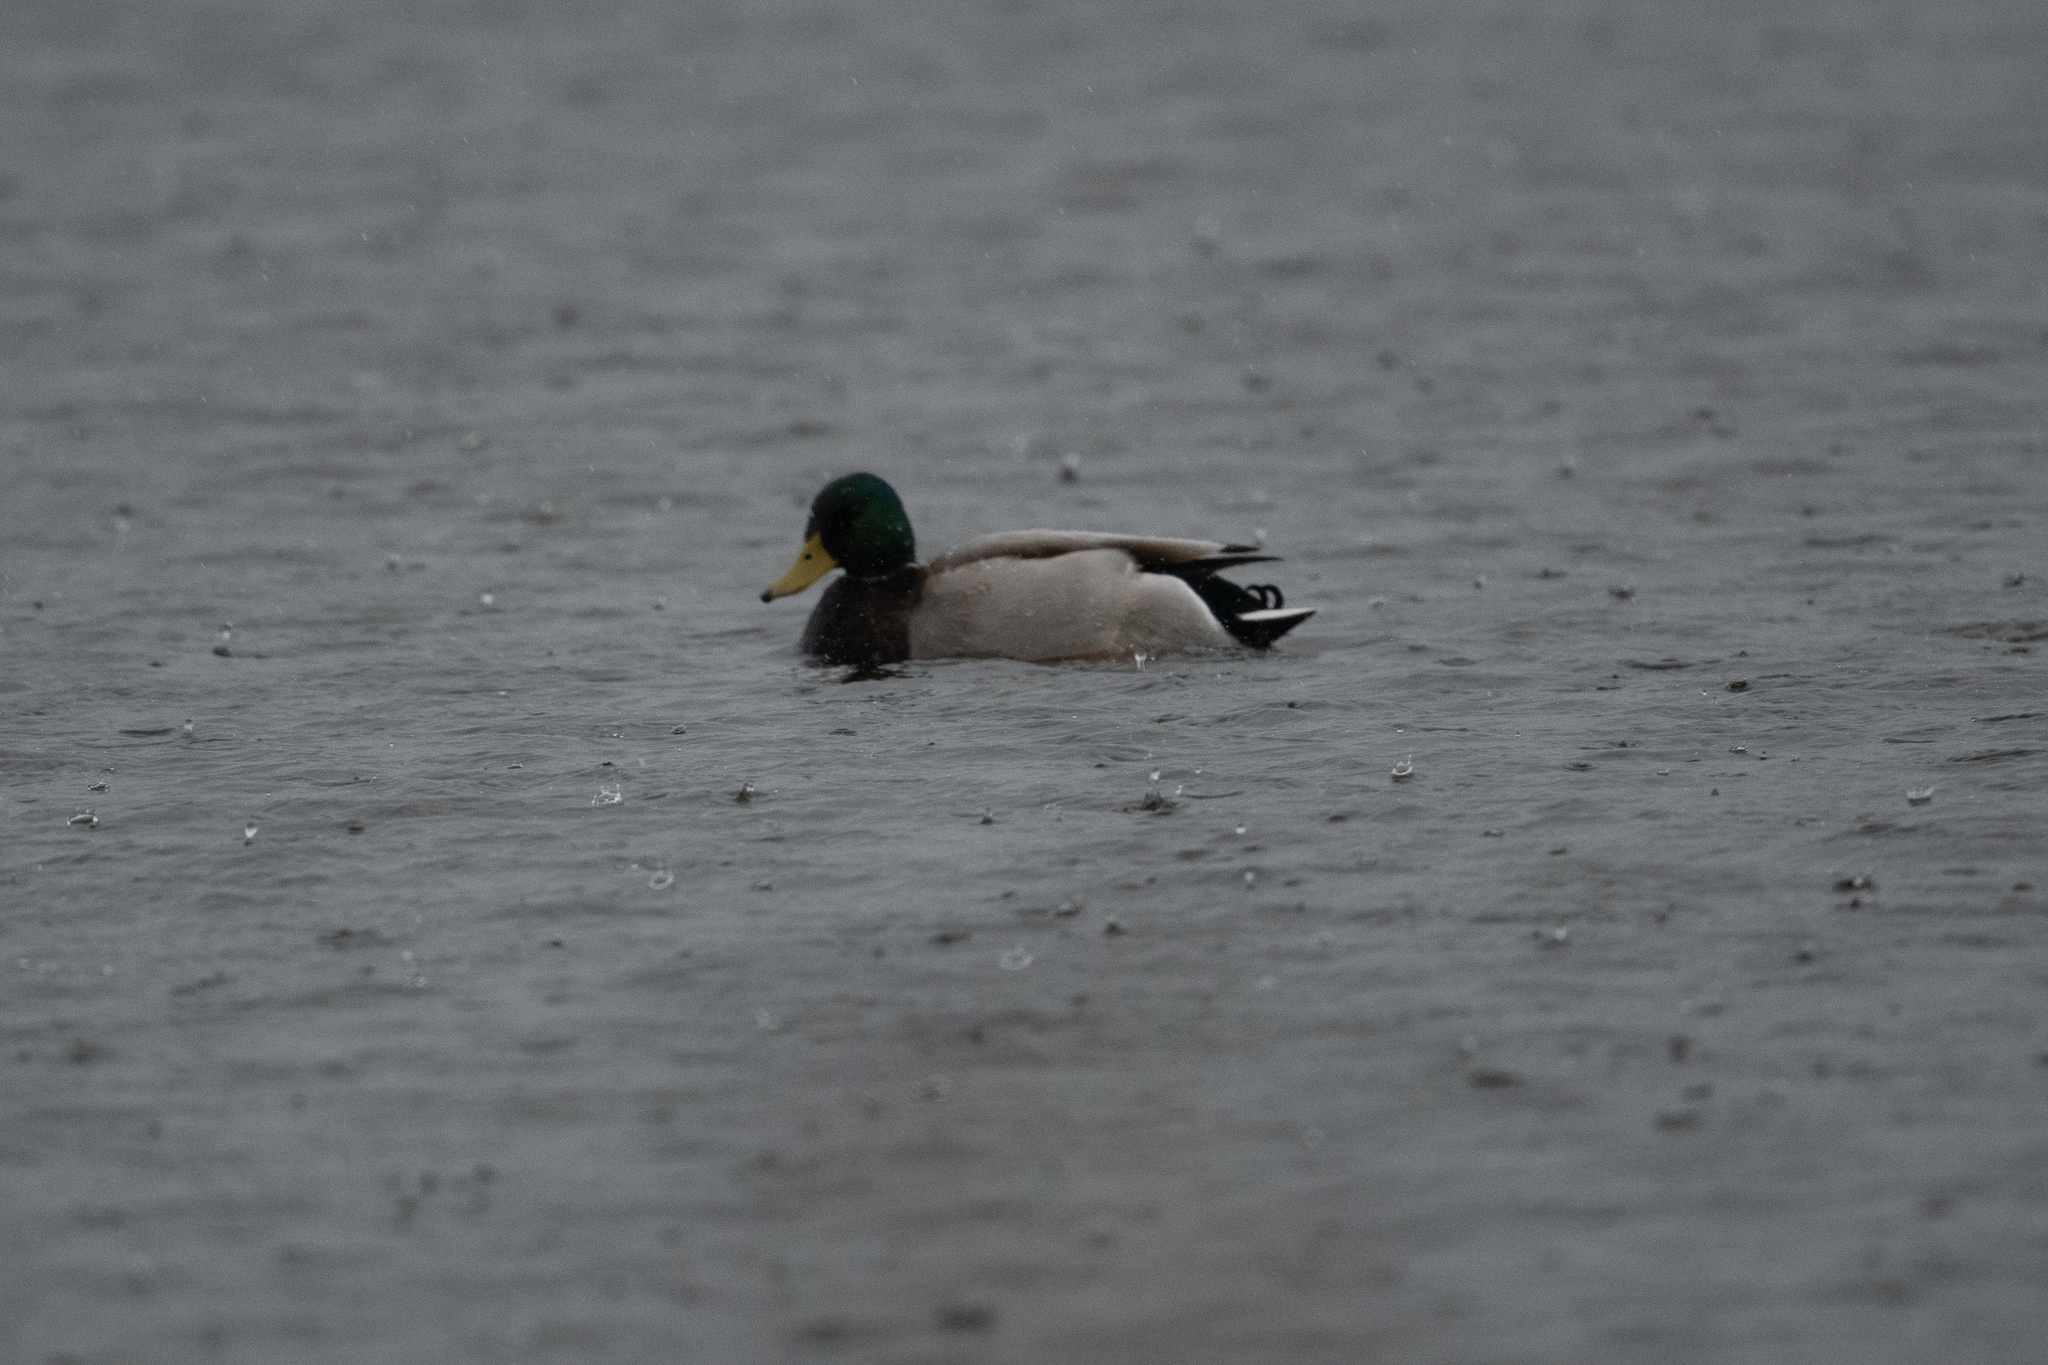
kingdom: Animalia
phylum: Chordata
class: Aves
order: Anseriformes
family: Anatidae
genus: Anas
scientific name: Anas platyrhynchos
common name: Mallard
